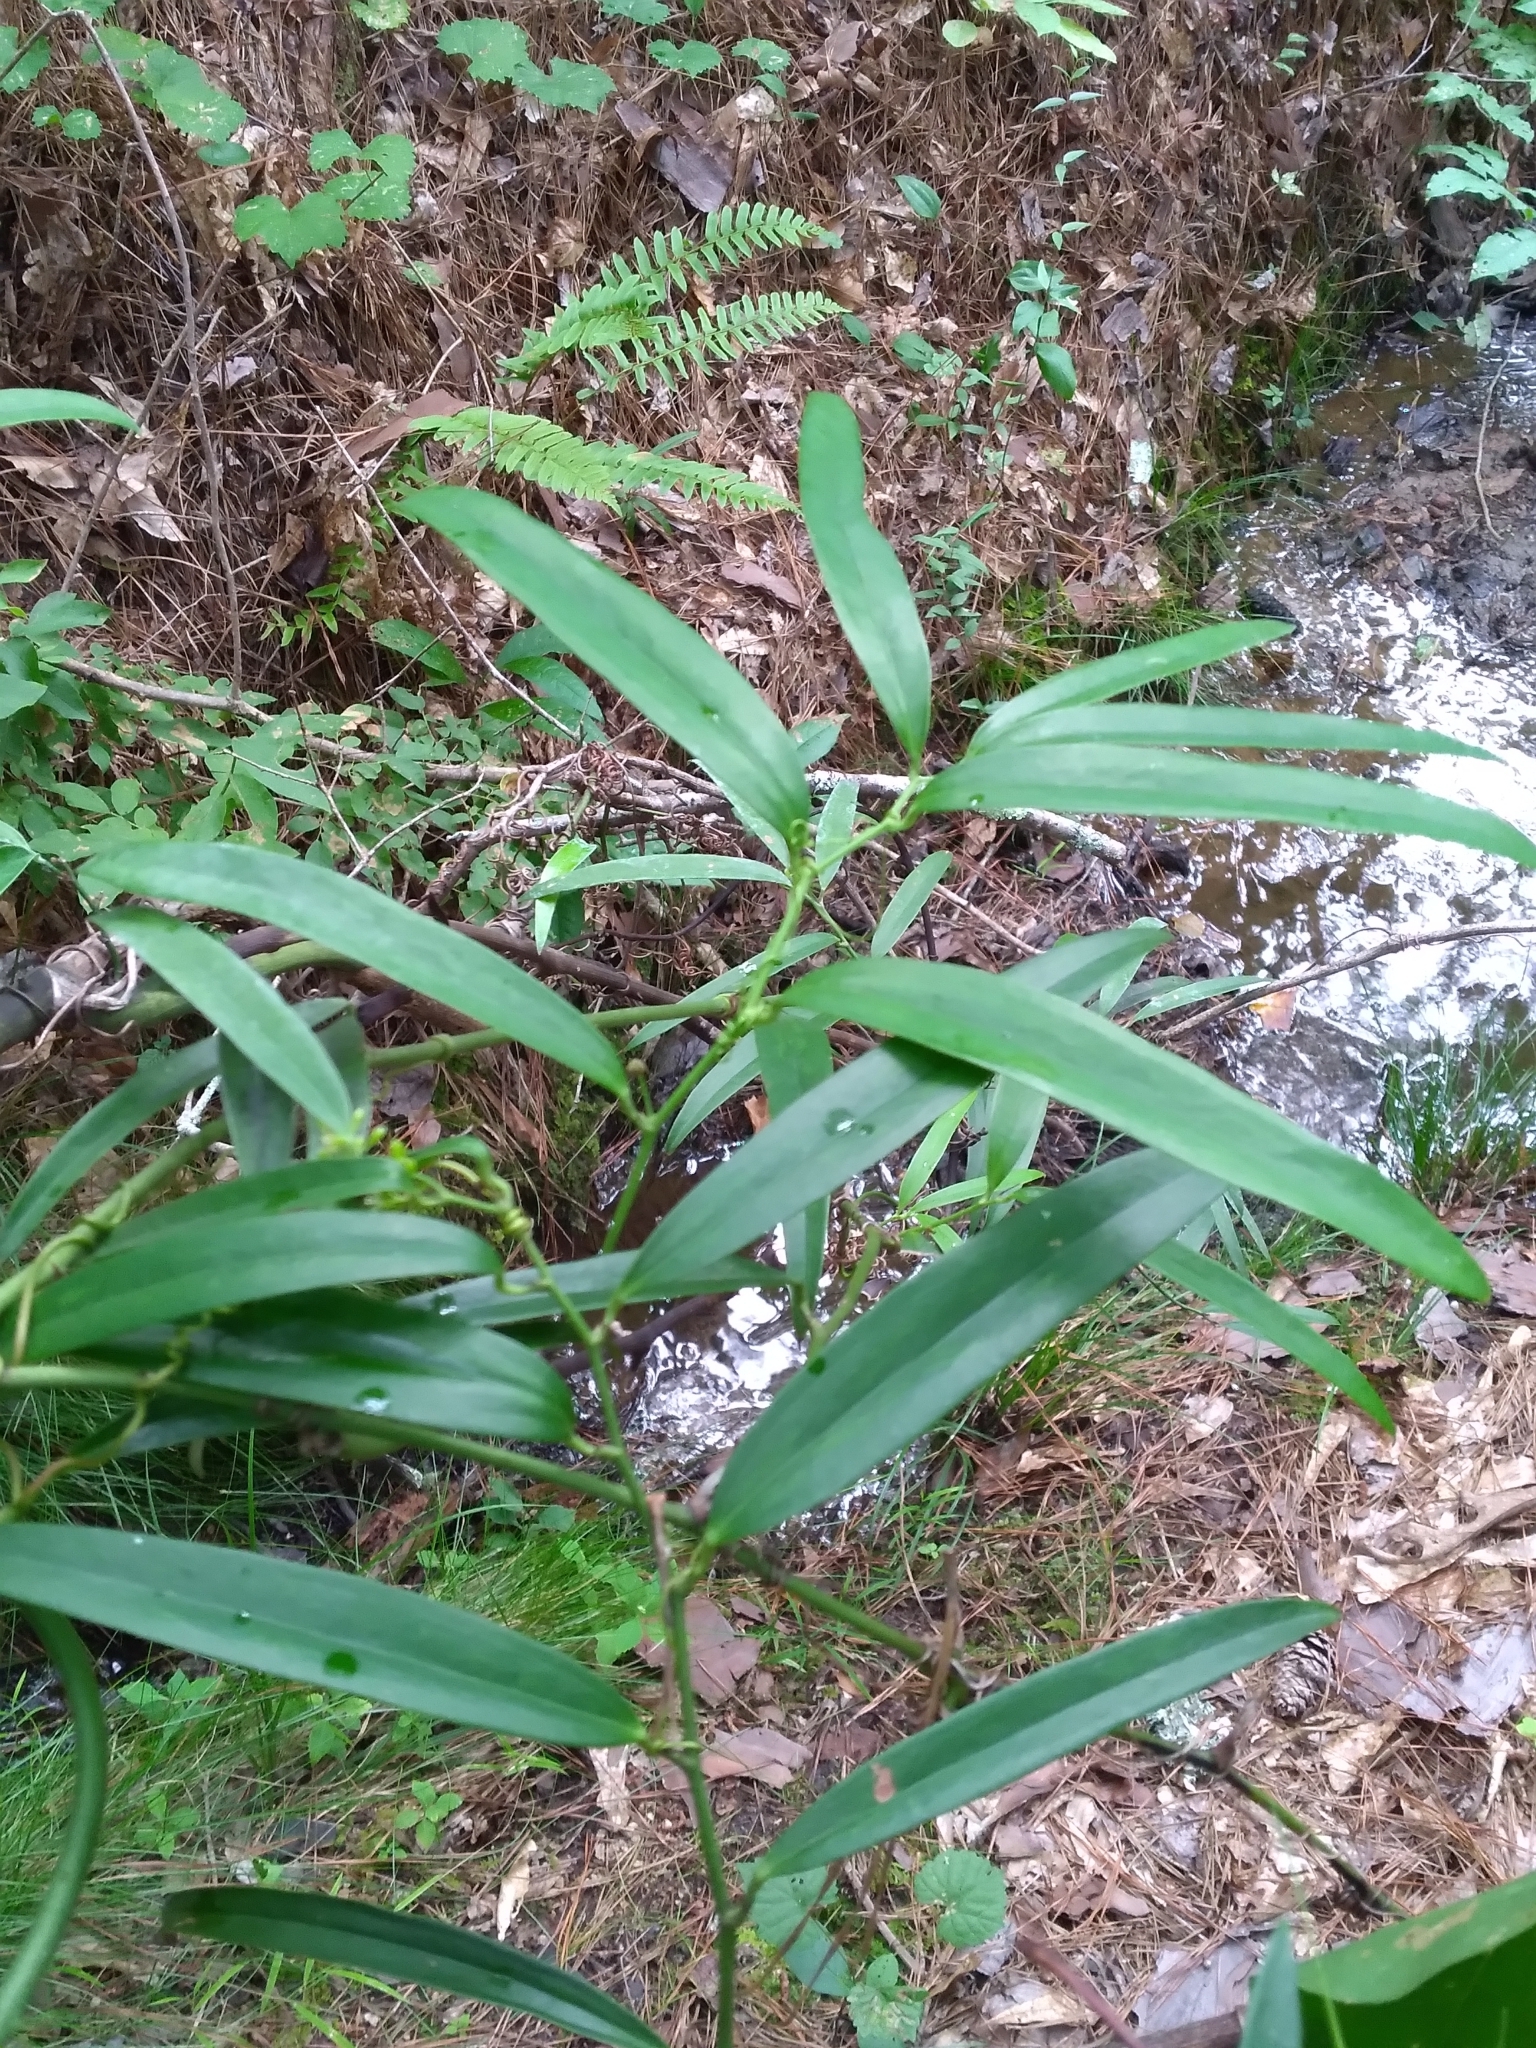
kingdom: Plantae
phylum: Tracheophyta
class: Liliopsida
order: Liliales
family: Smilacaceae
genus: Smilax
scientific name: Smilax laurifolia
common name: Bamboovine
